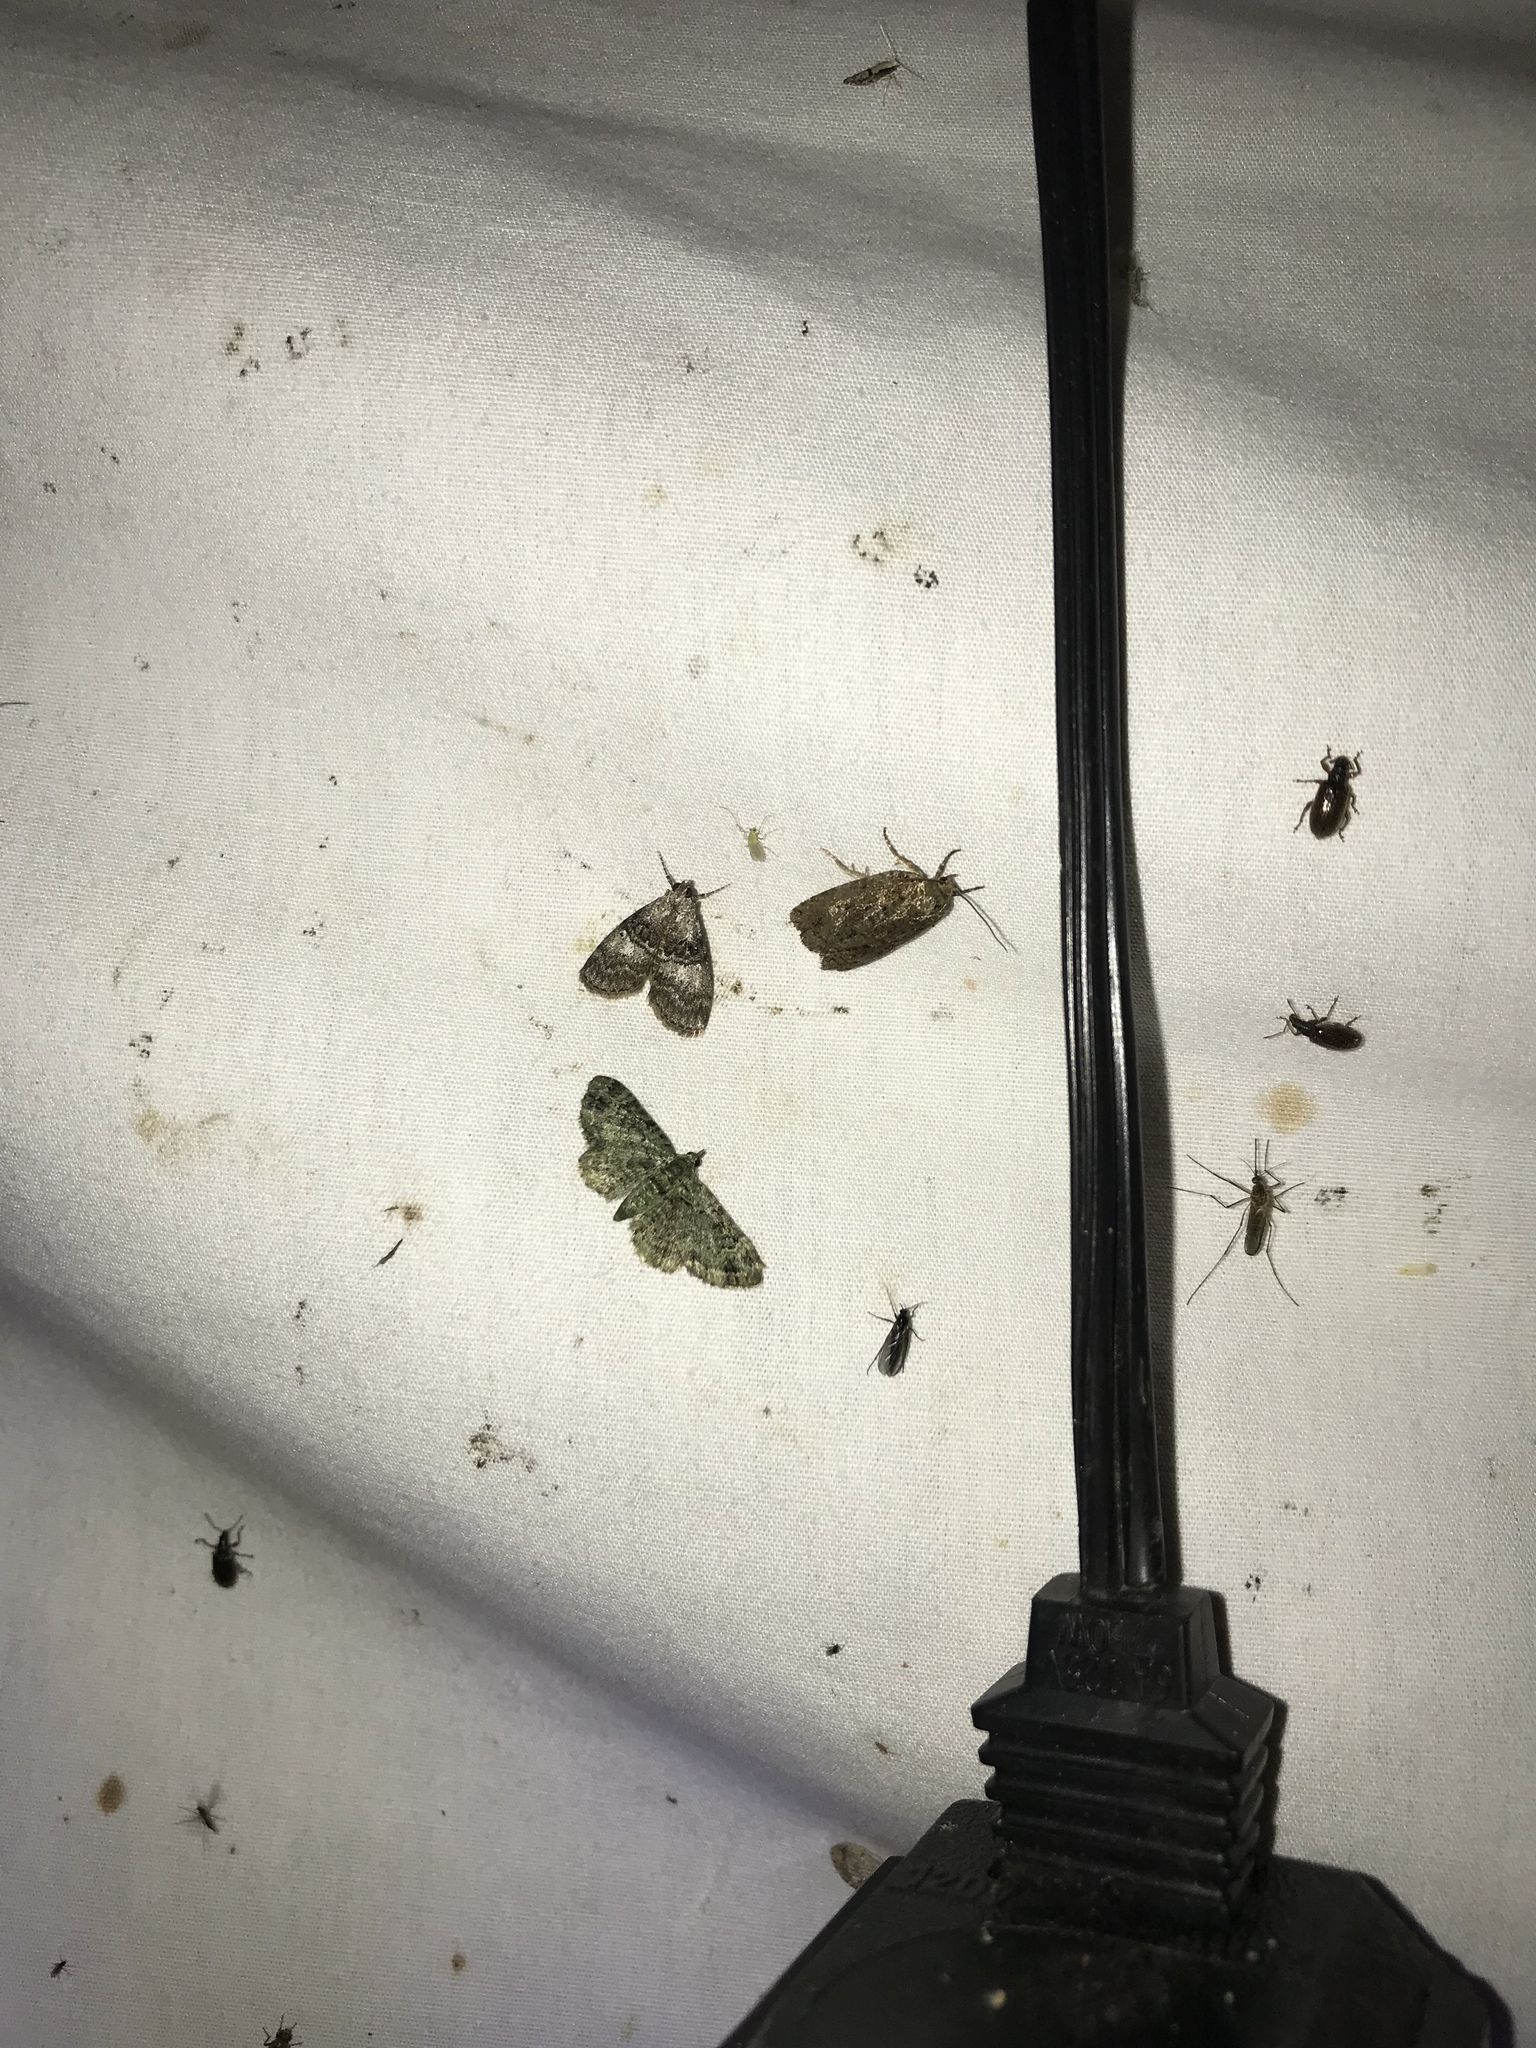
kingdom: Animalia
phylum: Arthropoda
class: Insecta
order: Lepidoptera
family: Geometridae
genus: Pasiphila
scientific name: Pasiphila rectangulata
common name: Green pug
